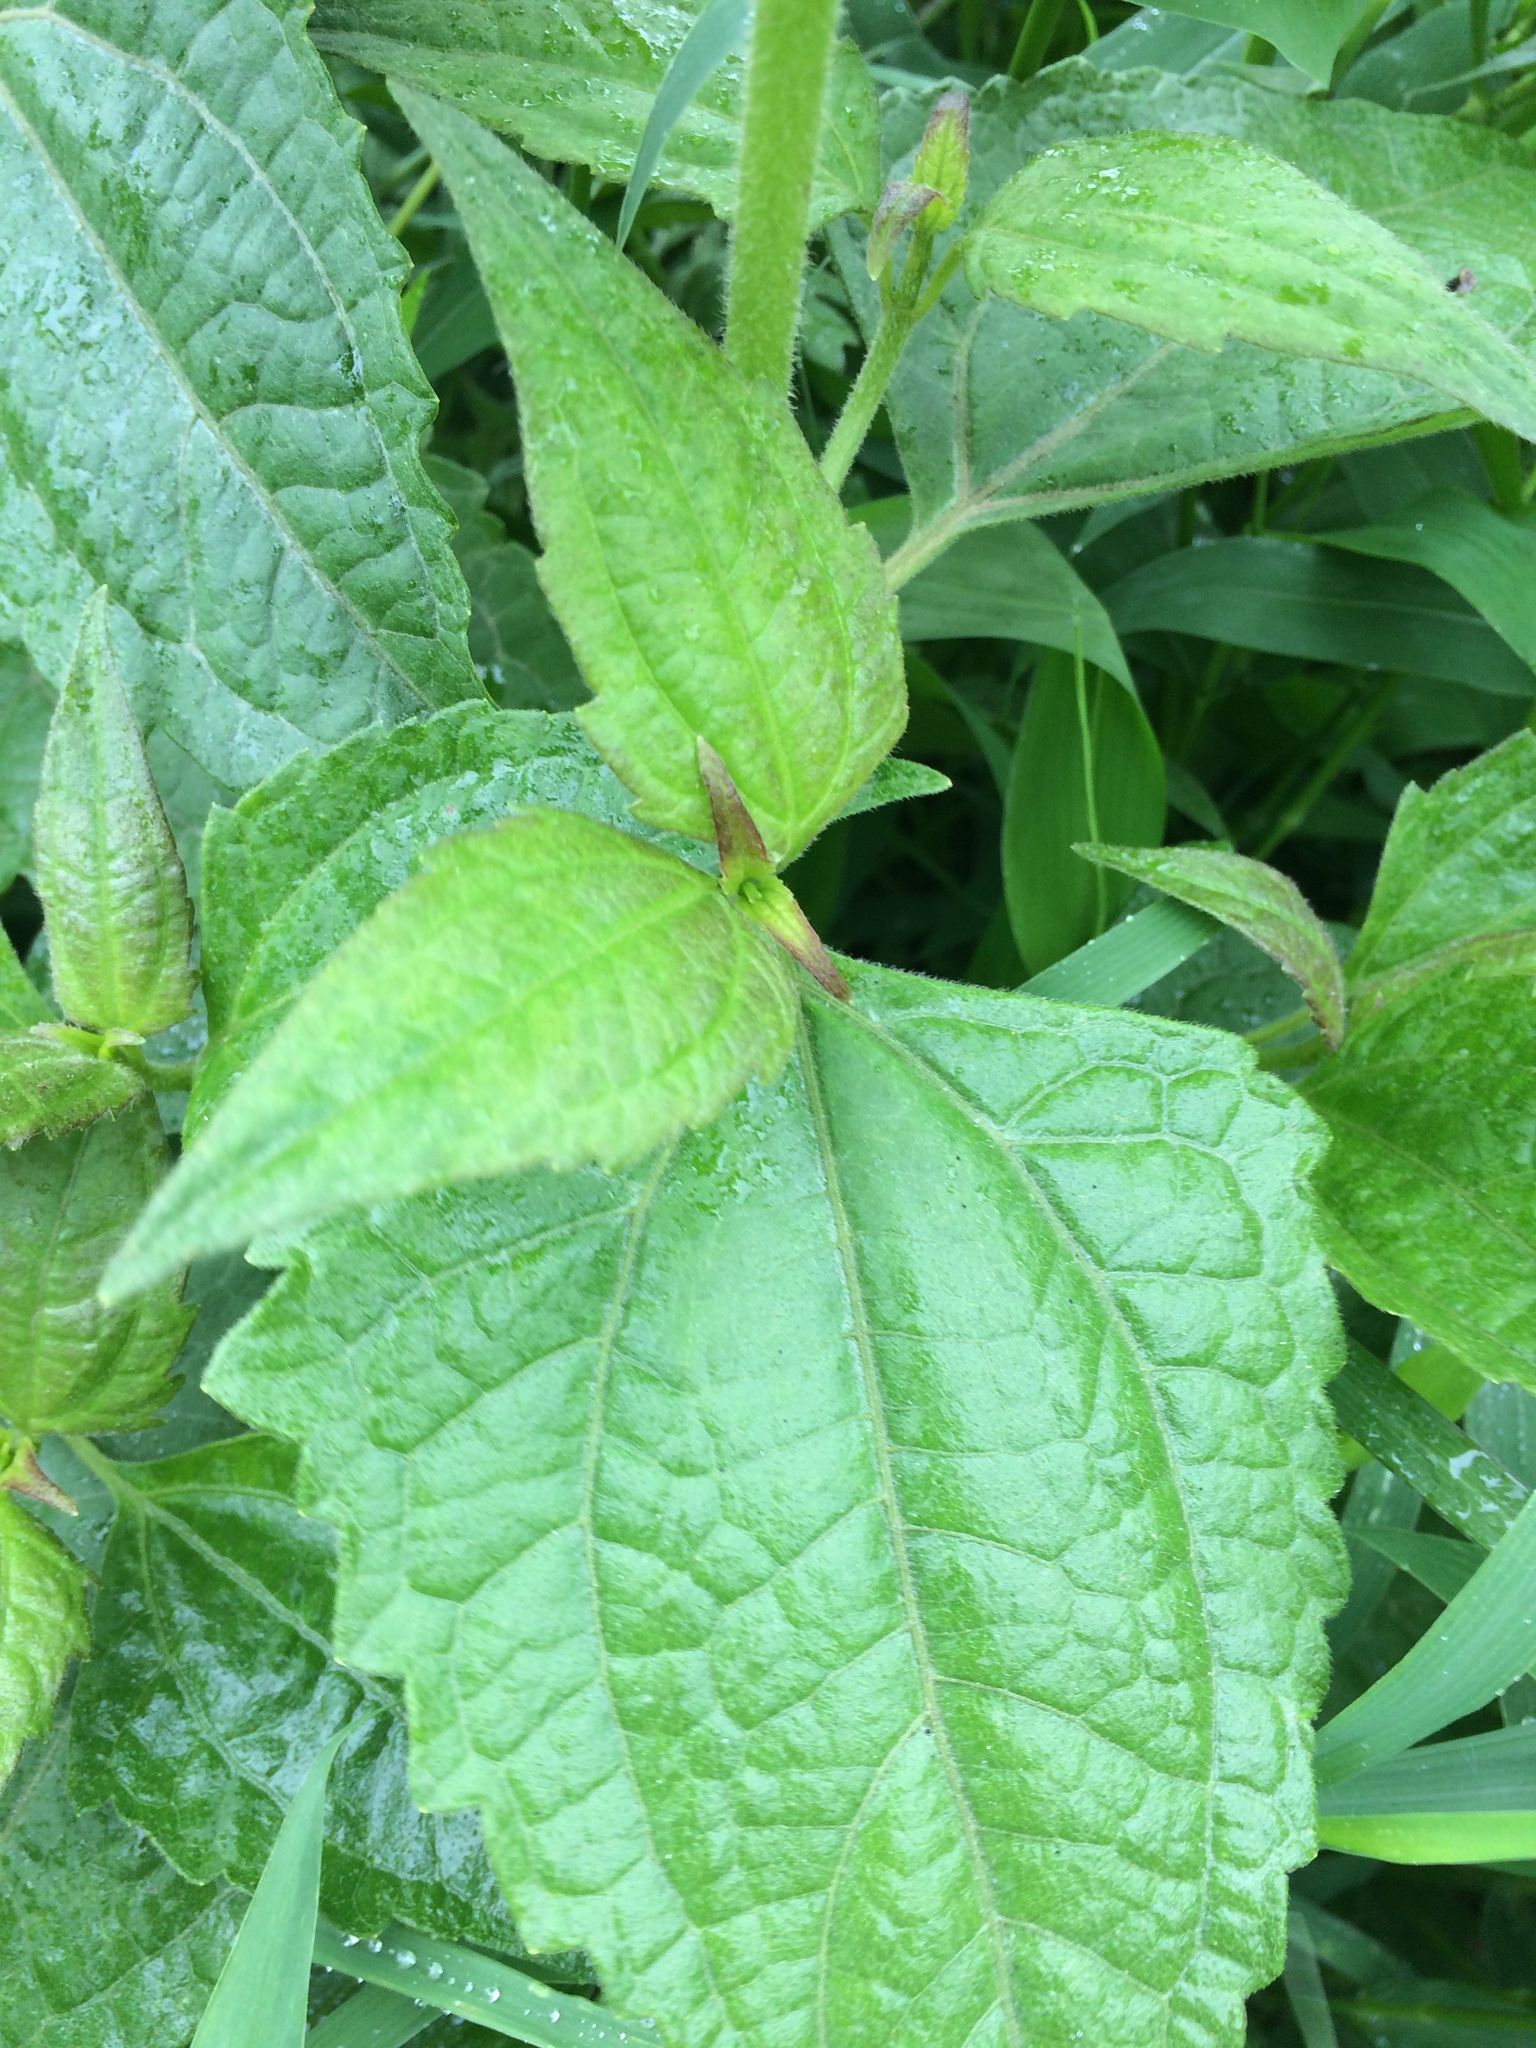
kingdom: Plantae
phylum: Tracheophyta
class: Magnoliopsida
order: Asterales
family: Asteraceae
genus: Chromolaena
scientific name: Chromolaena odorata
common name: Siamweed
